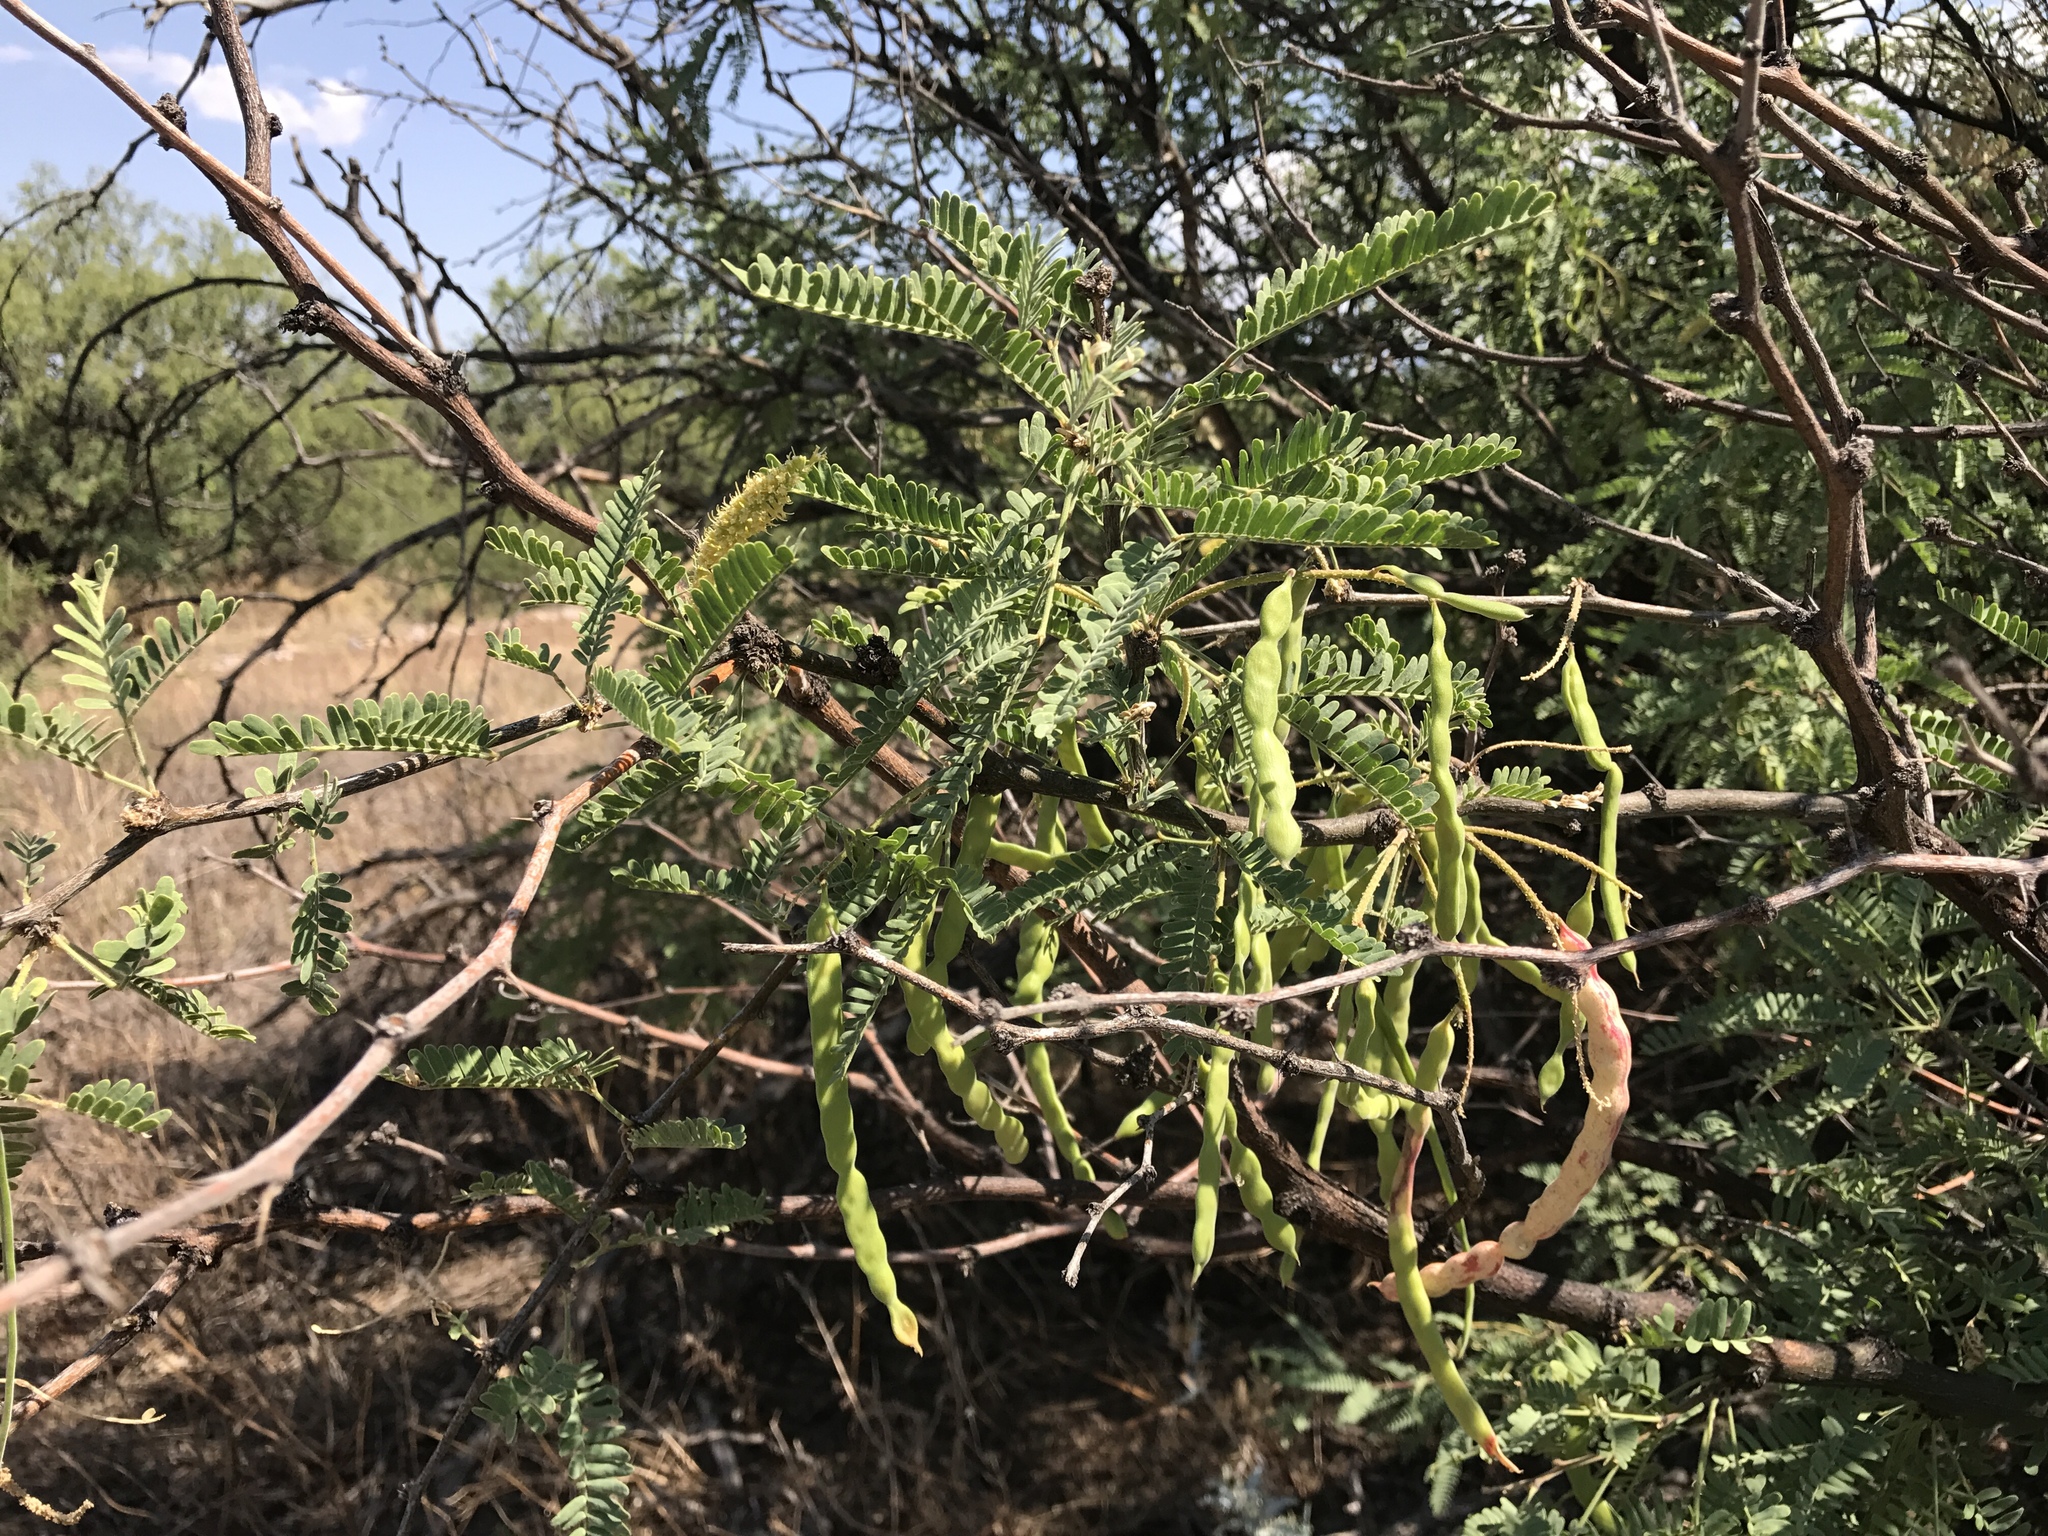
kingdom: Plantae
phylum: Tracheophyta
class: Magnoliopsida
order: Fabales
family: Fabaceae
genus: Prosopis
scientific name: Prosopis velutina
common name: Velvet mesquite
